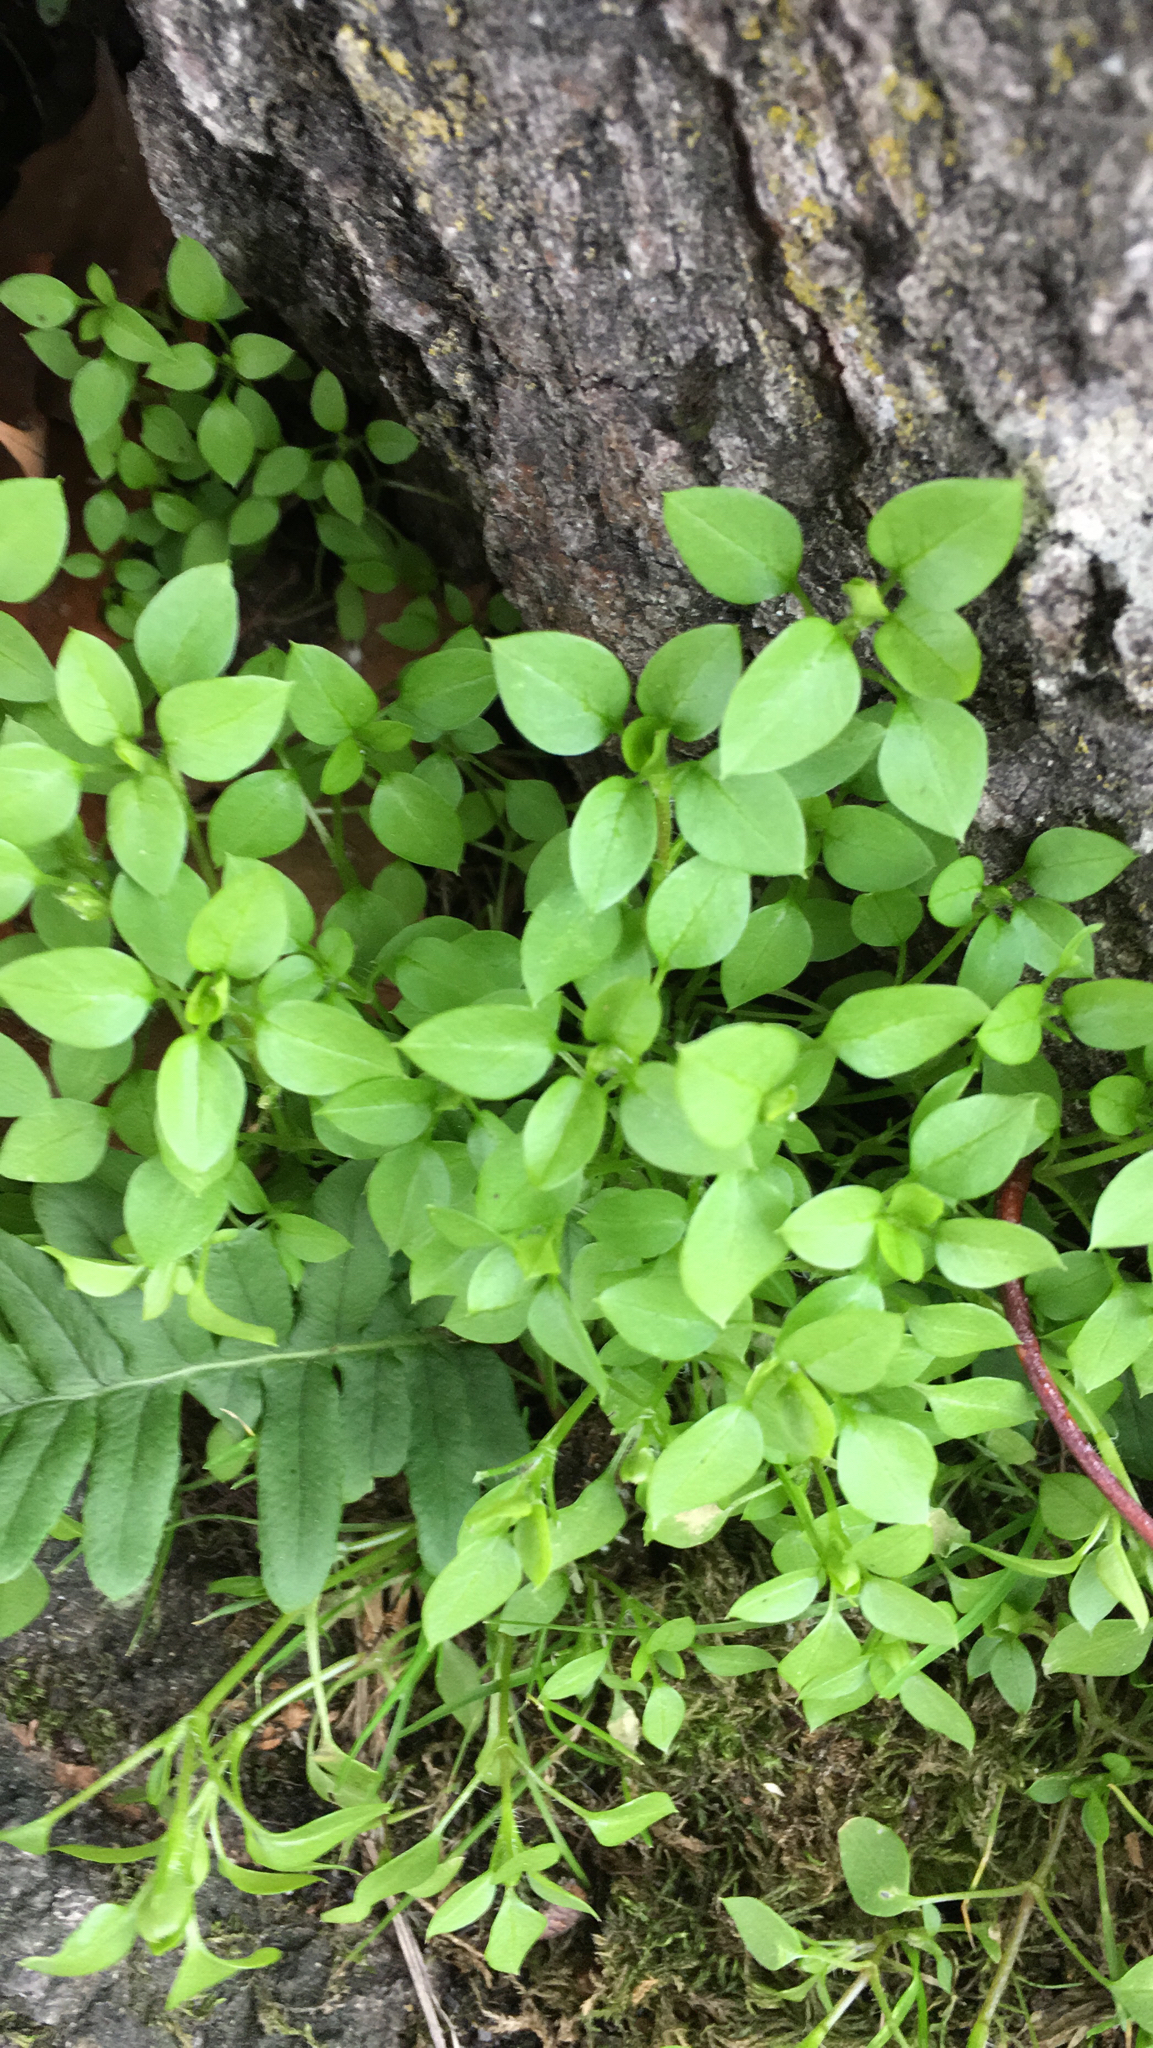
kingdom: Plantae
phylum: Tracheophyta
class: Magnoliopsida
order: Caryophyllales
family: Caryophyllaceae
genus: Stellaria
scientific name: Stellaria media
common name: Common chickweed
